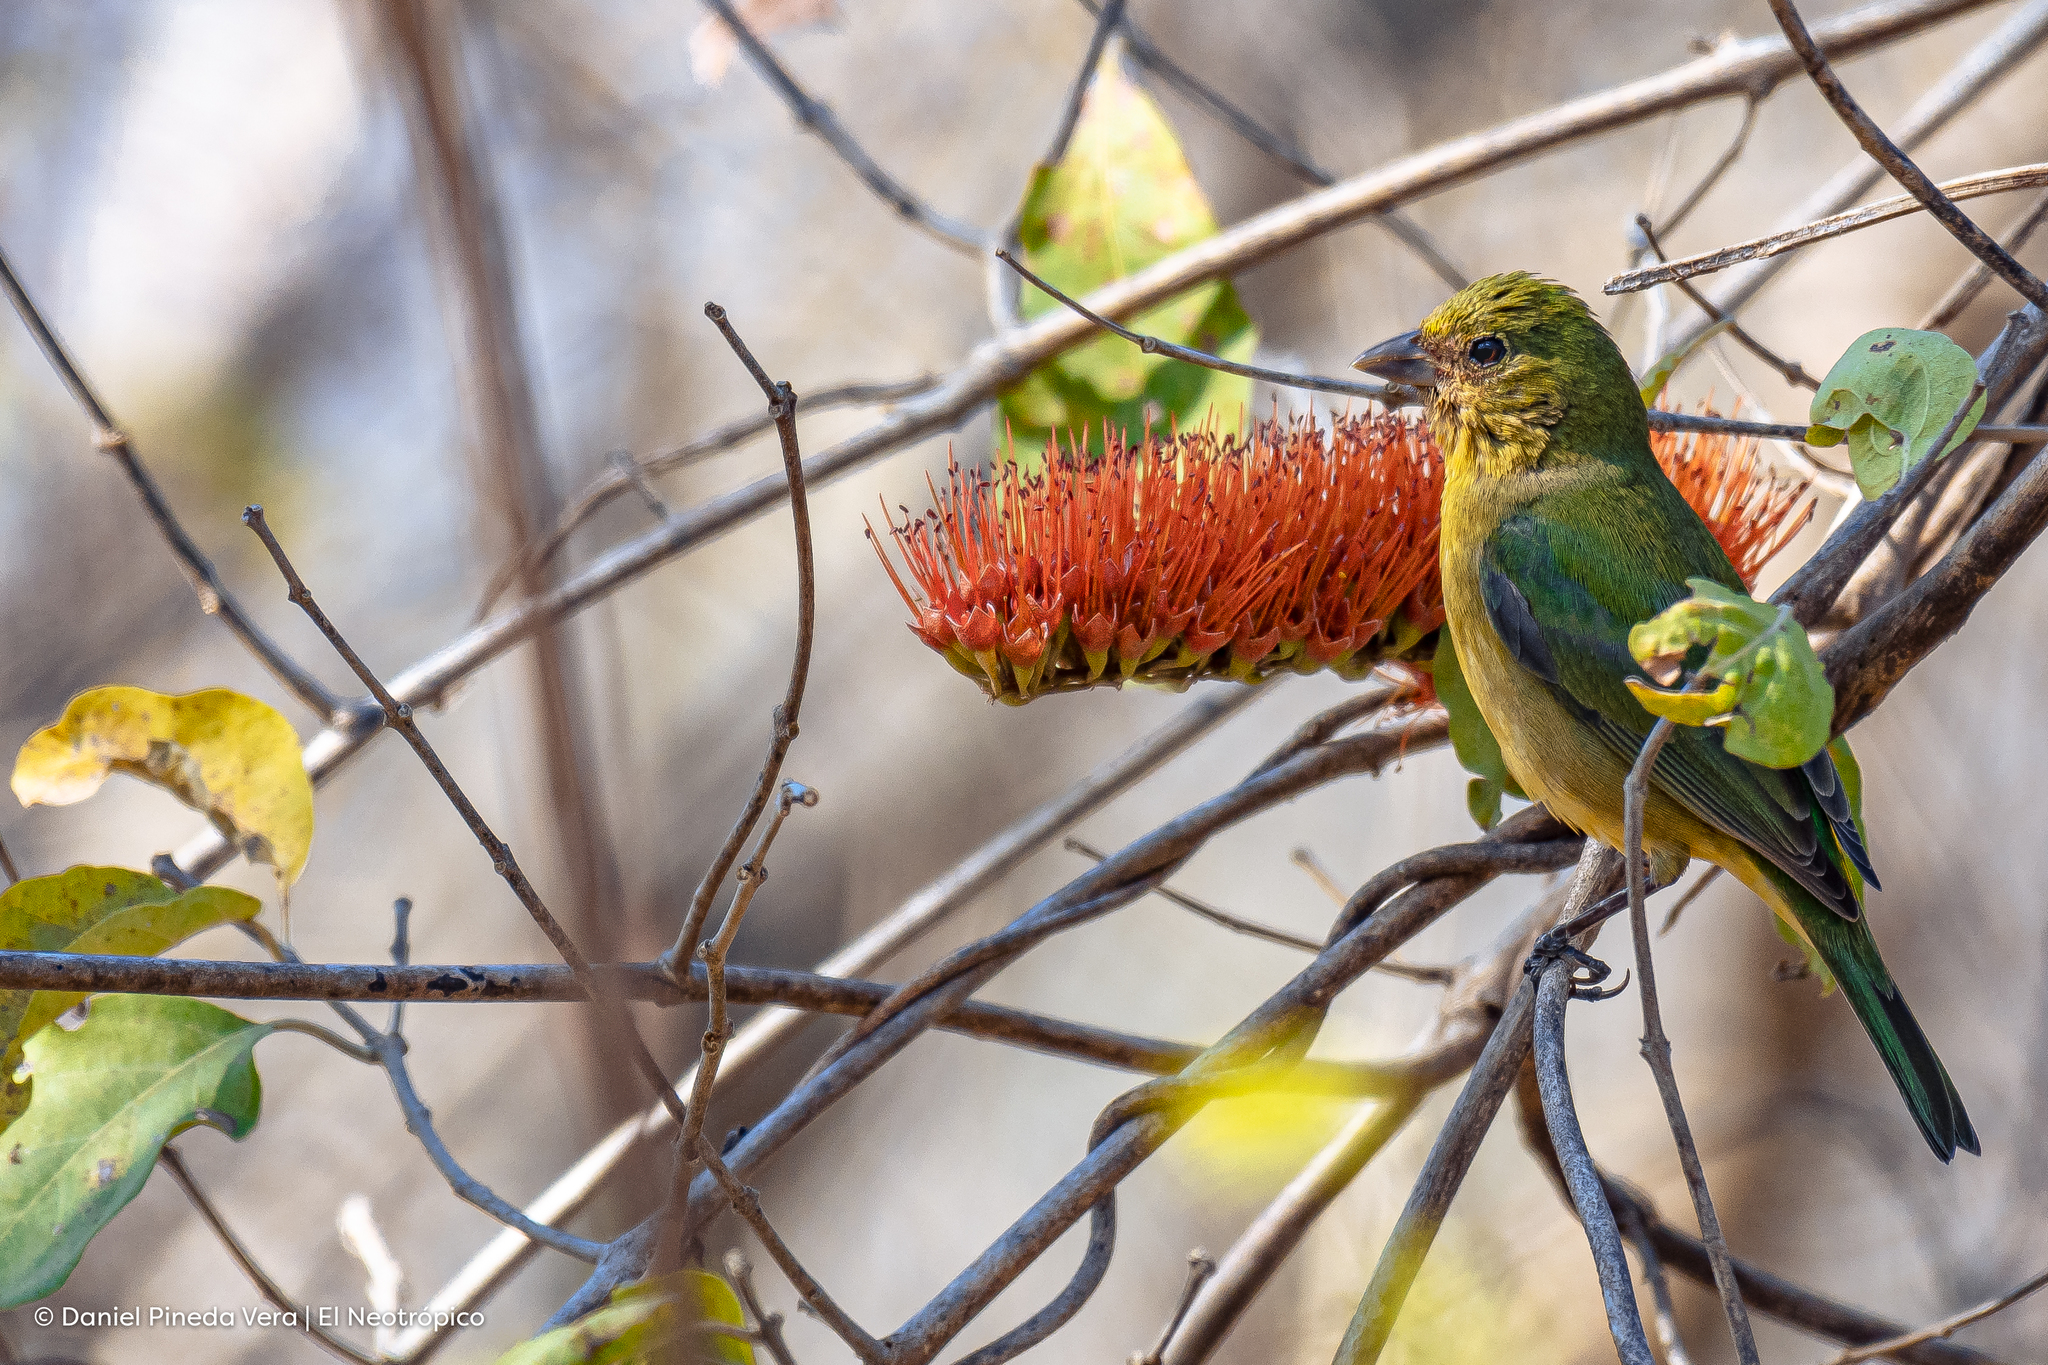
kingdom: Animalia
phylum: Chordata
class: Aves
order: Passeriformes
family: Cardinalidae
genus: Passerina
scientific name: Passerina ciris
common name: Painted bunting
